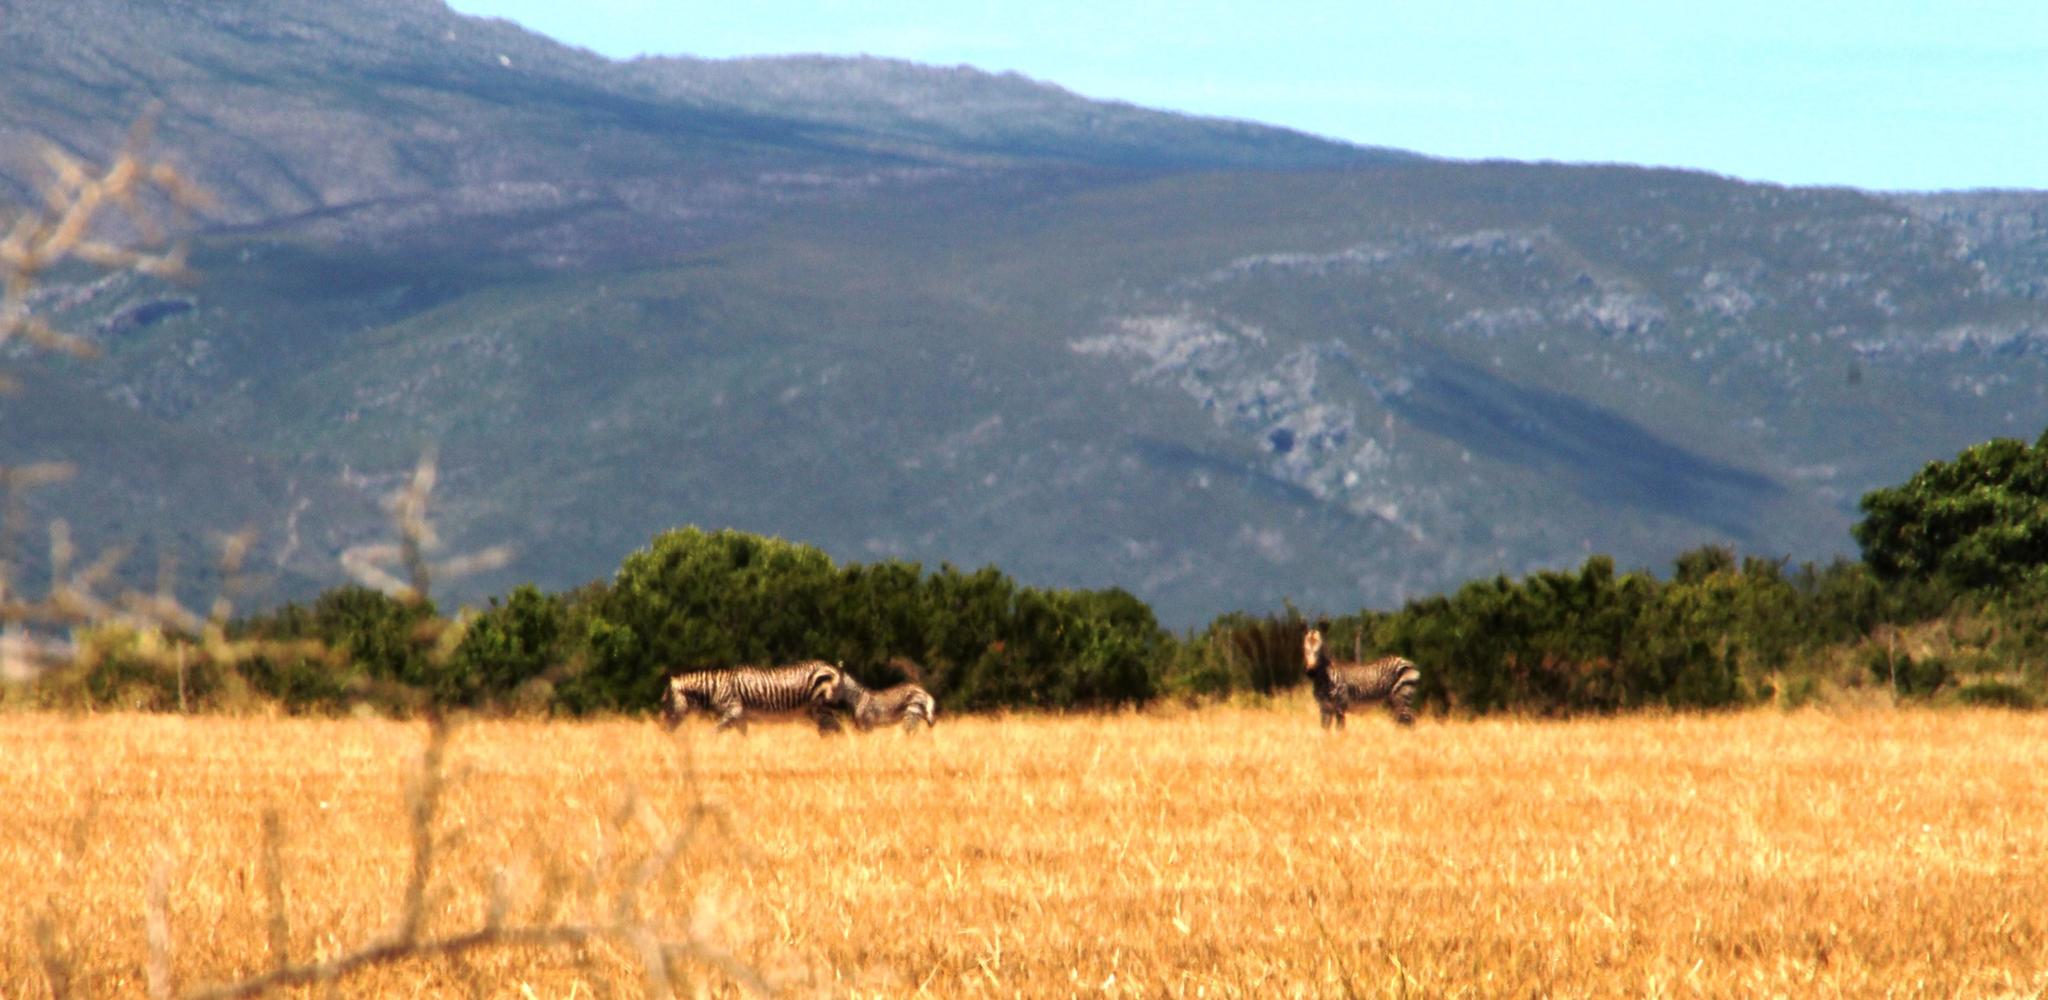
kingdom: Animalia
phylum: Chordata
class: Mammalia
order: Perissodactyla
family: Equidae
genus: Equus
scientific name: Equus zebra
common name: Mountain zebra
